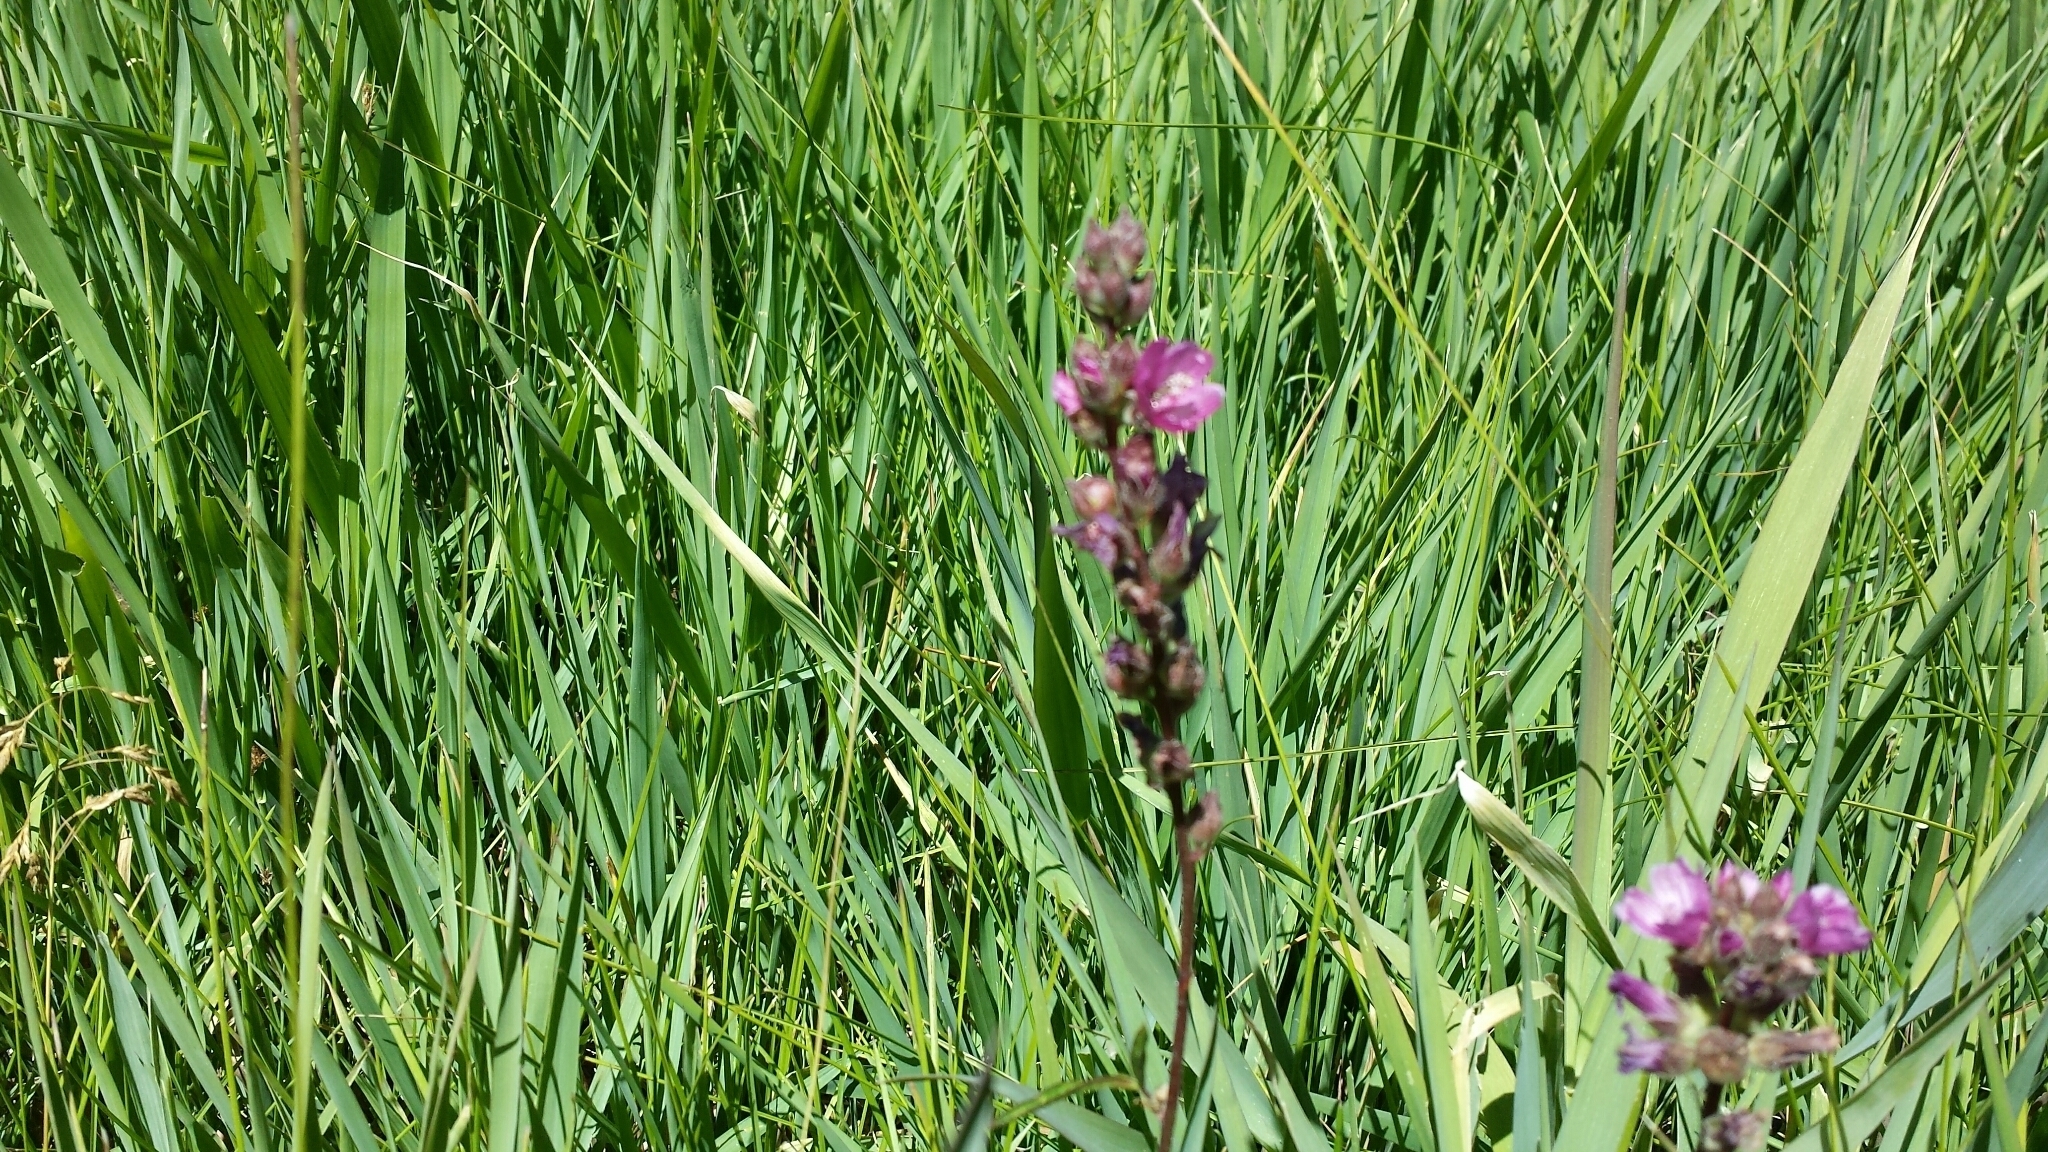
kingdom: Plantae
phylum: Tracheophyta
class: Magnoliopsida
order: Malvales
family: Malvaceae
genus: Sidalcea
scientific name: Sidalcea oregana
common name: Oregon checker-mallow
